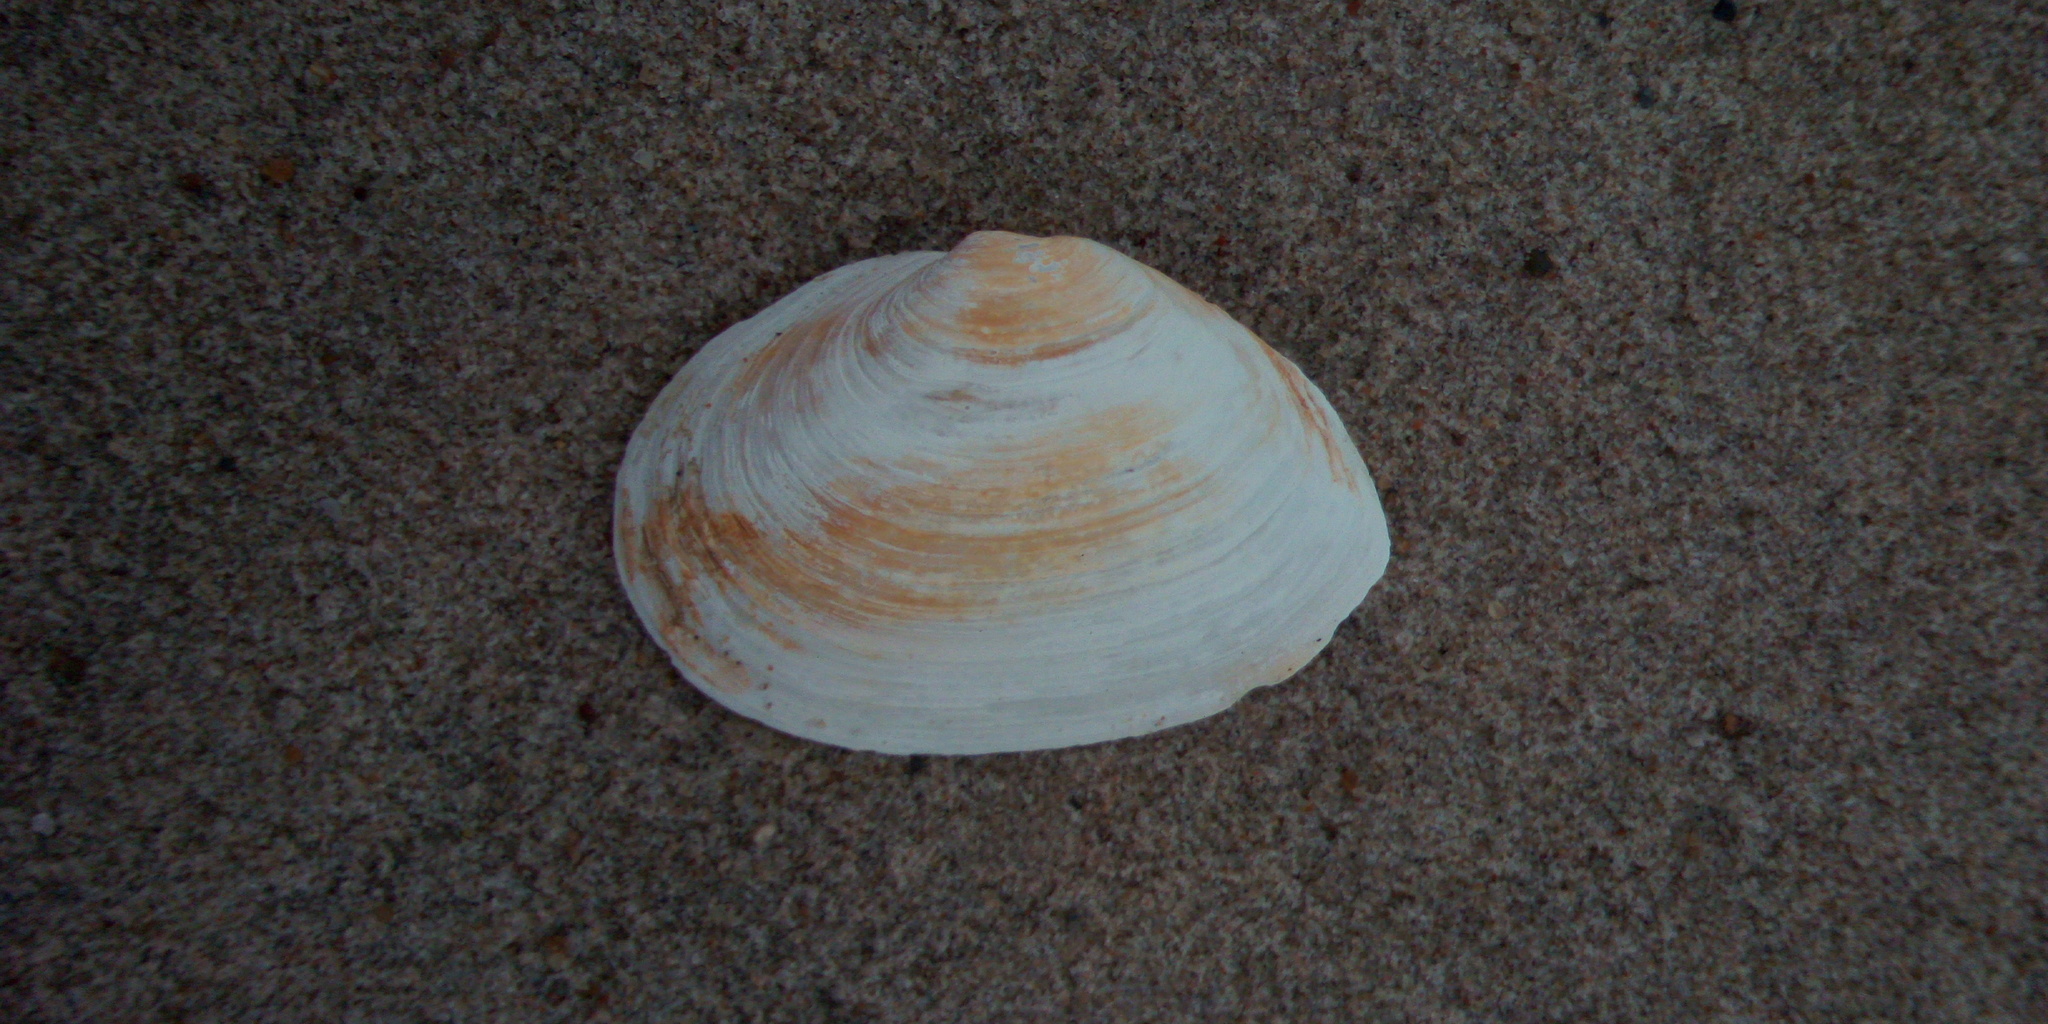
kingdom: Animalia
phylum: Mollusca
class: Bivalvia
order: Myida
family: Myidae
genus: Mya
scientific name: Mya arenaria
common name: Soft-shelled clam
